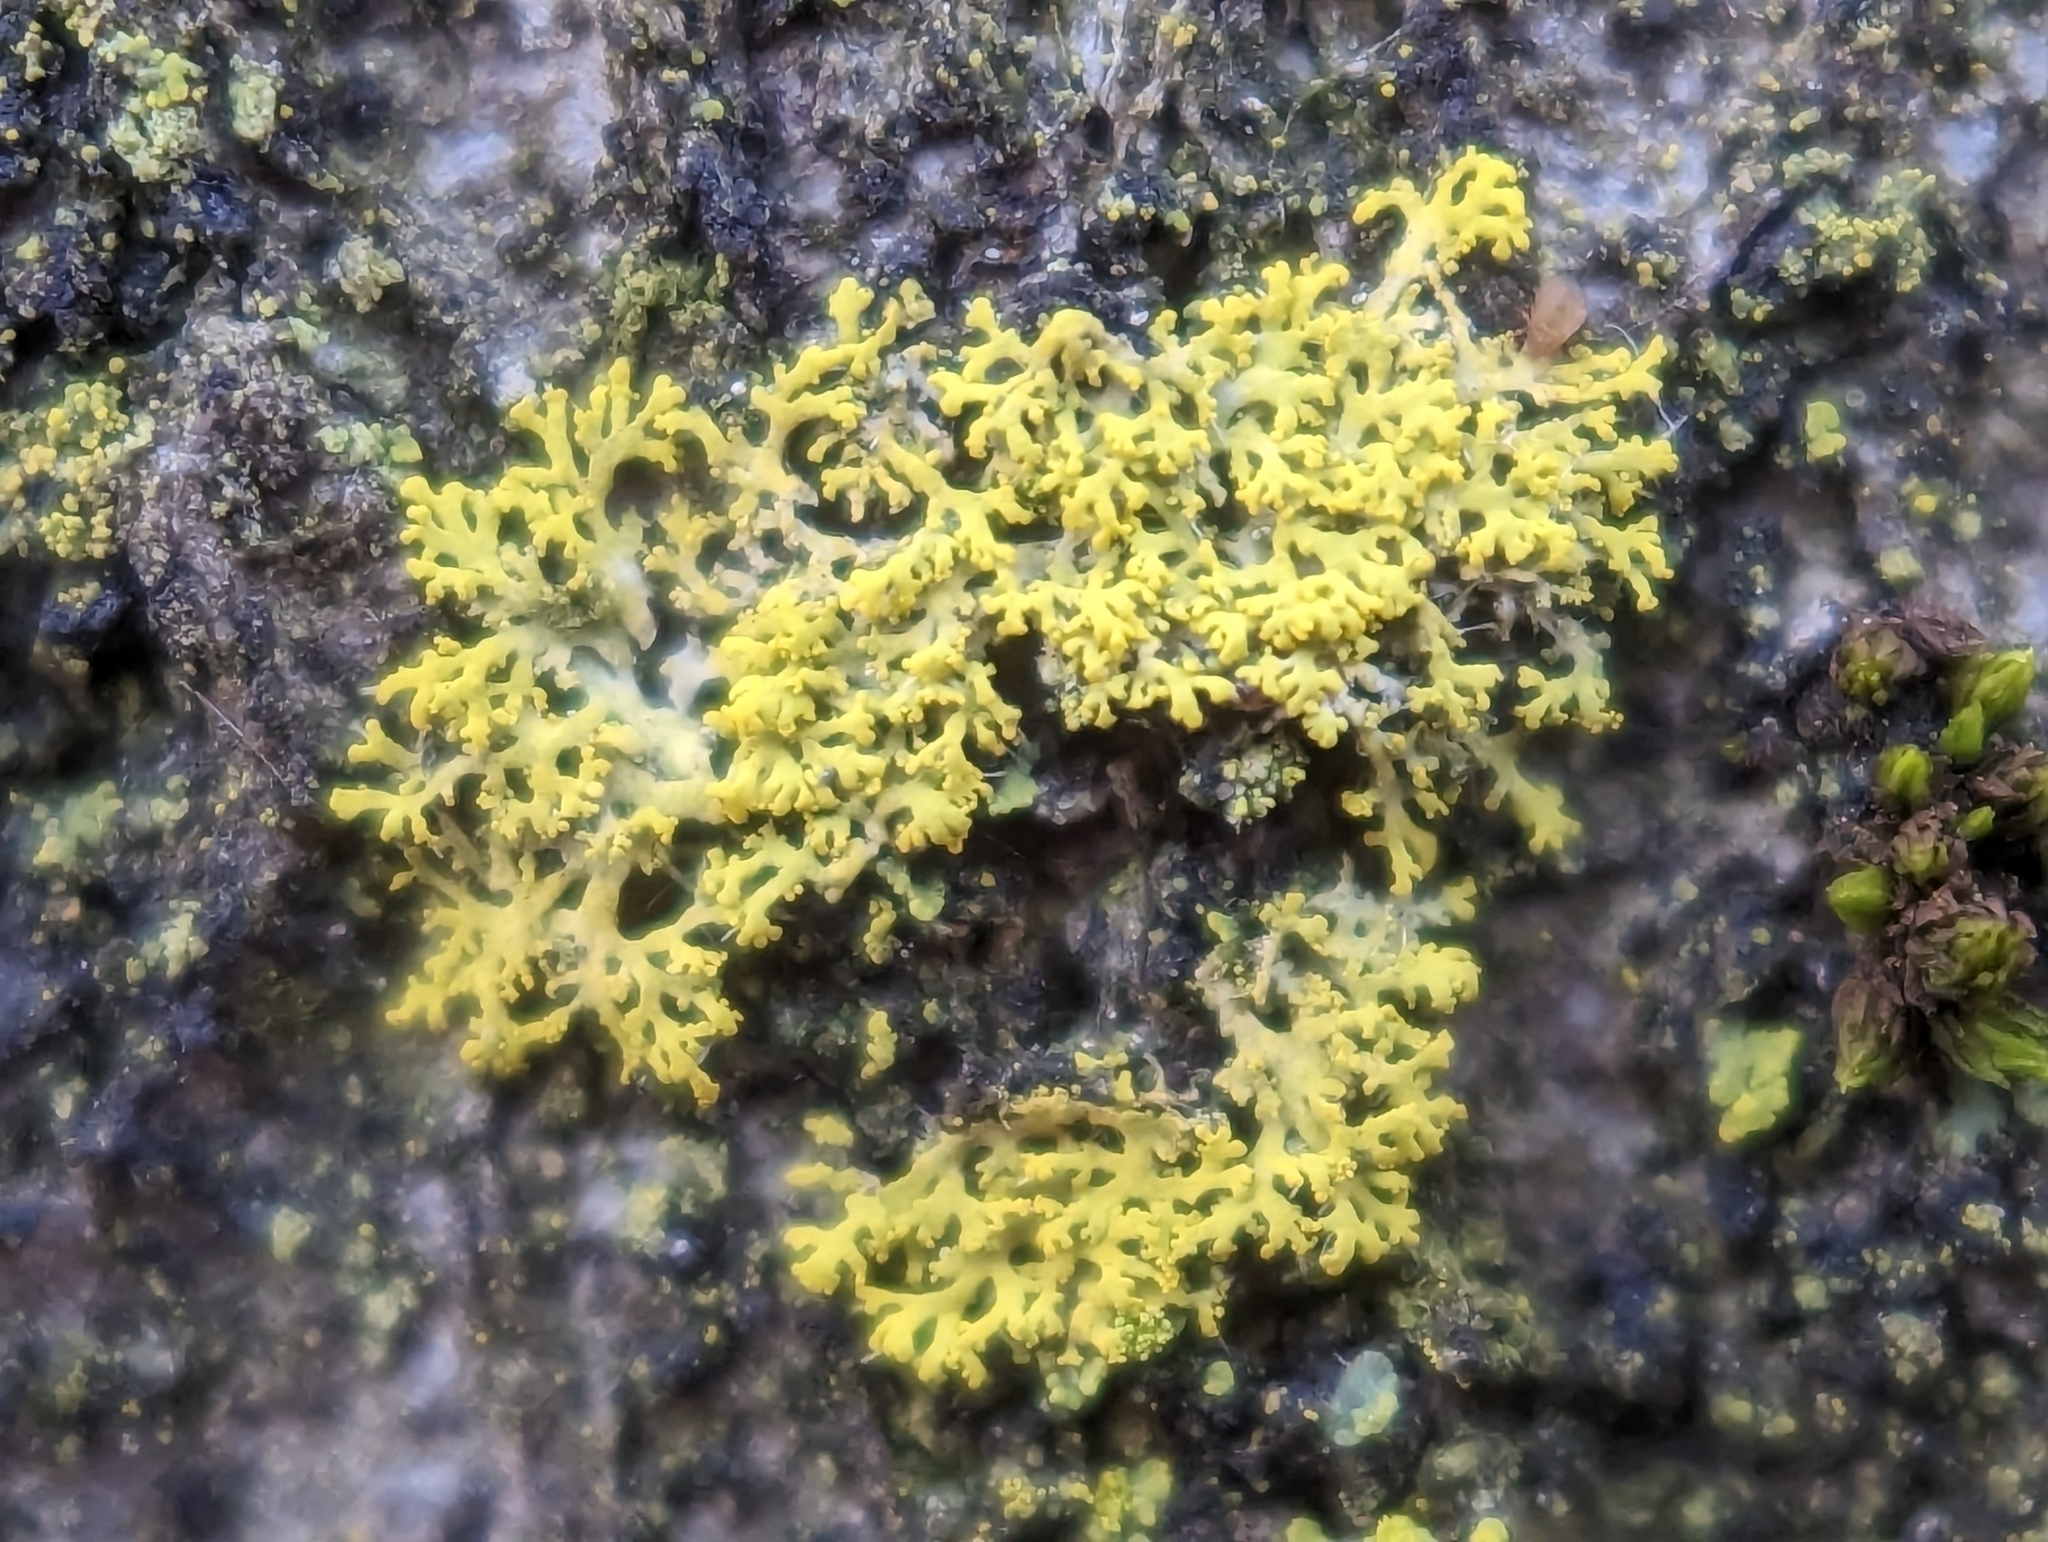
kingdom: Fungi
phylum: Ascomycota
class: Candelariomycetes
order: Candelariales
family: Candelariaceae
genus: Candelaria
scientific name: Candelaria concolor
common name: Candleflame lichen
